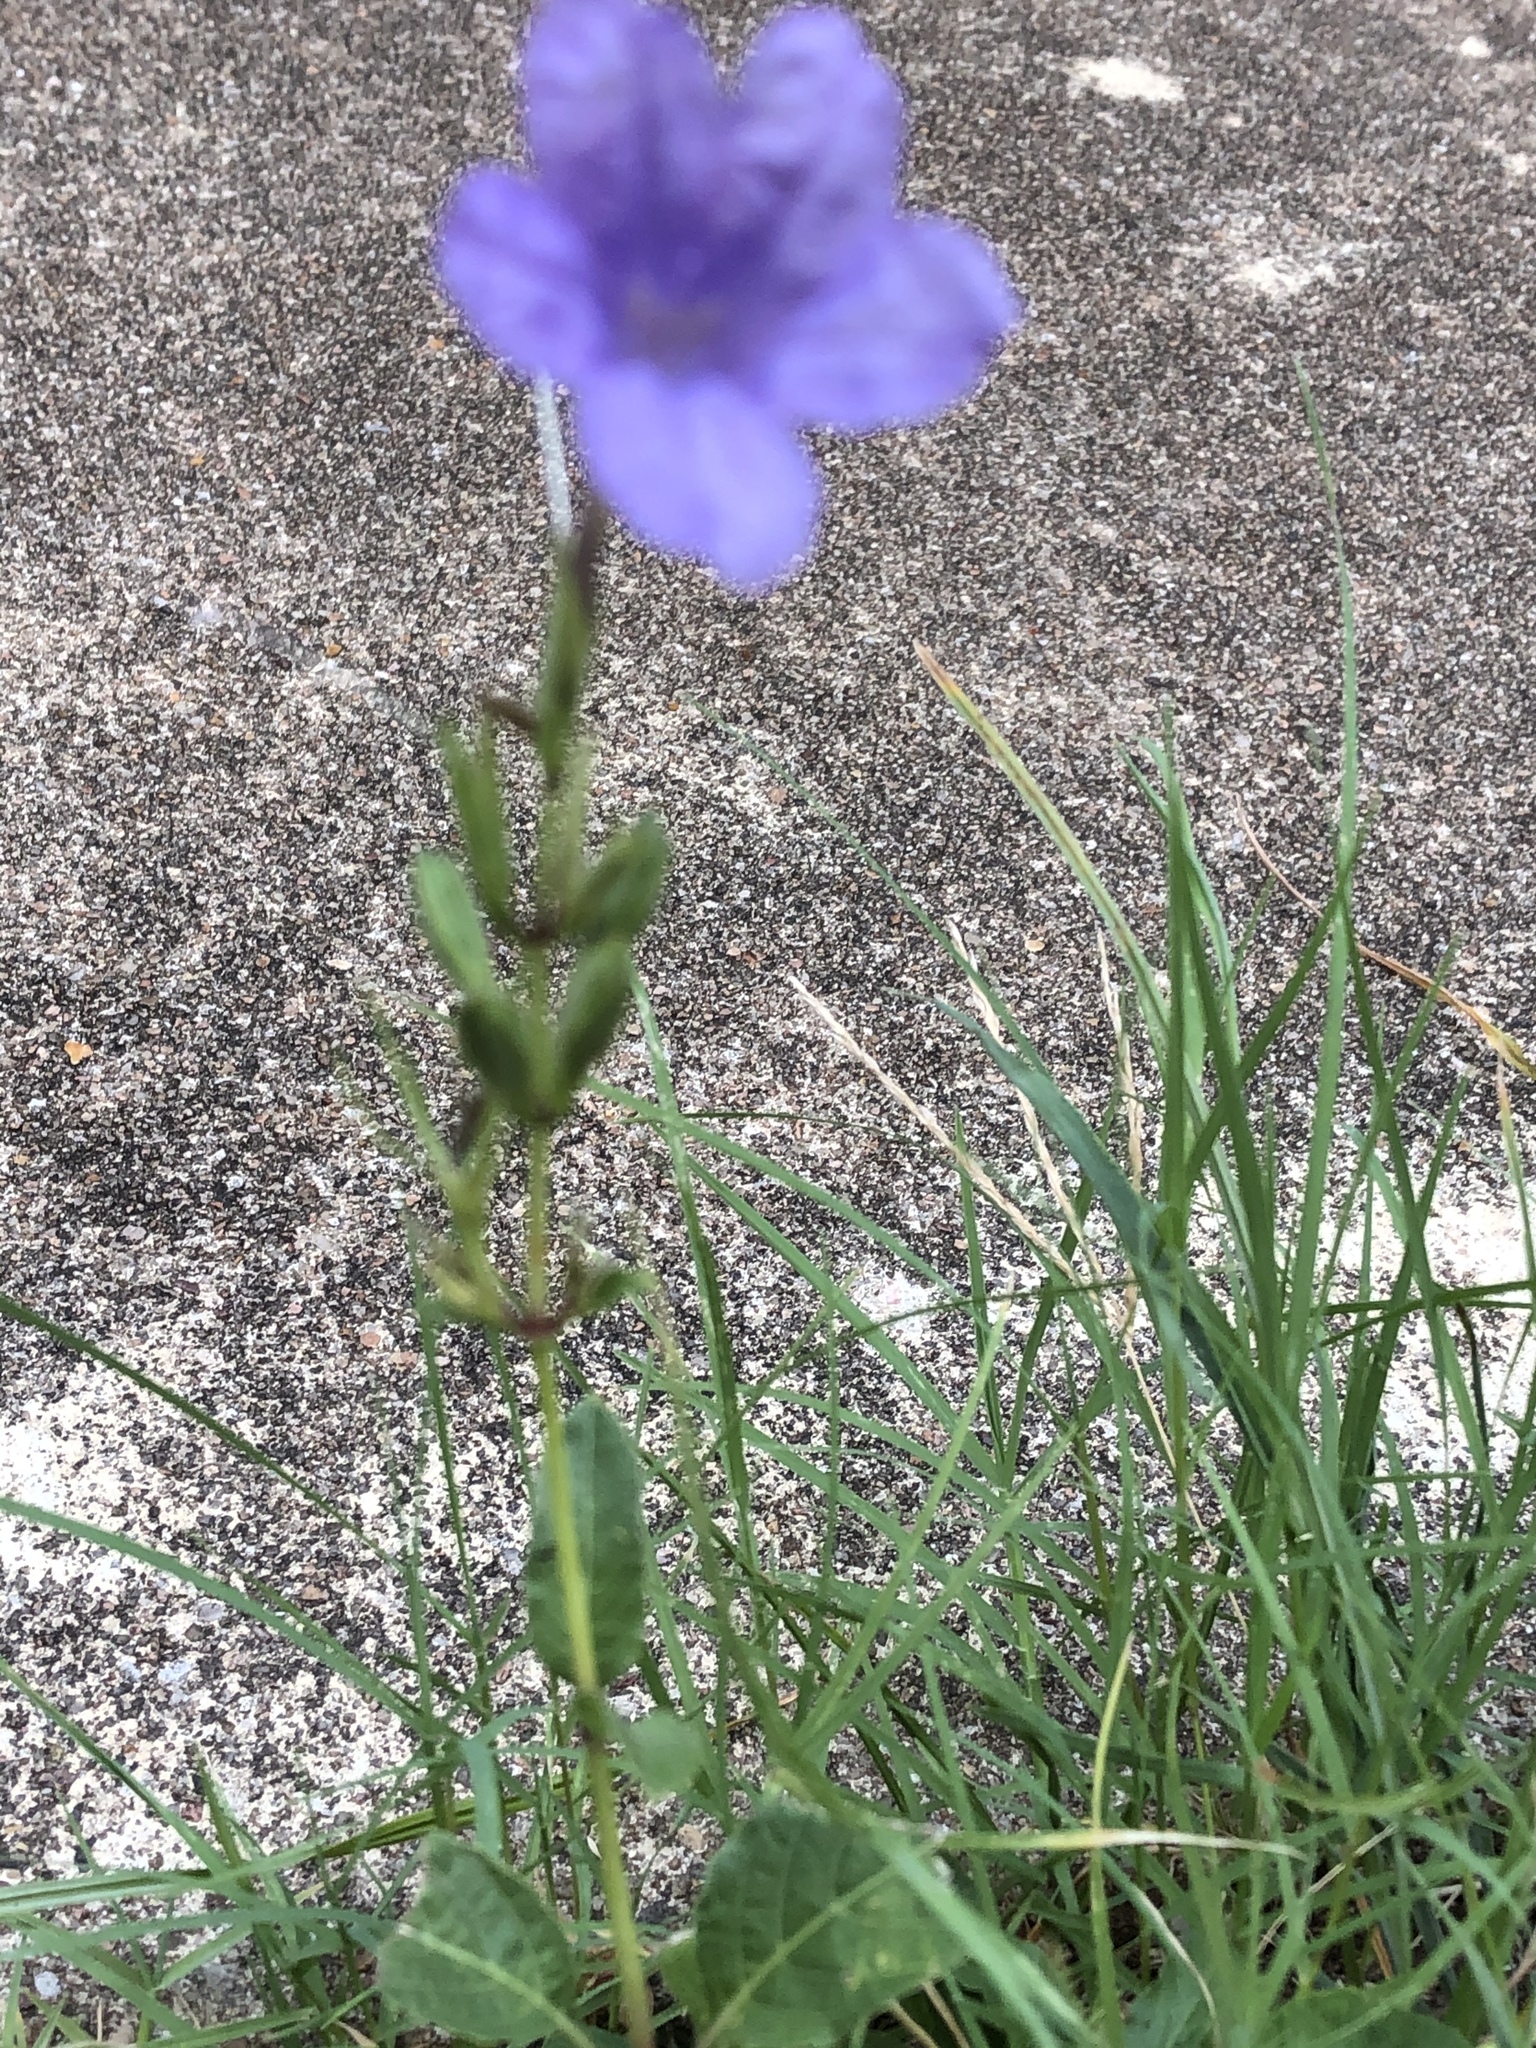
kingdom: Plantae
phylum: Tracheophyta
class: Magnoliopsida
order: Lamiales
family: Acanthaceae
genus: Ruellia
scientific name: Ruellia ciliatiflora
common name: Hairyflower wild petunia
